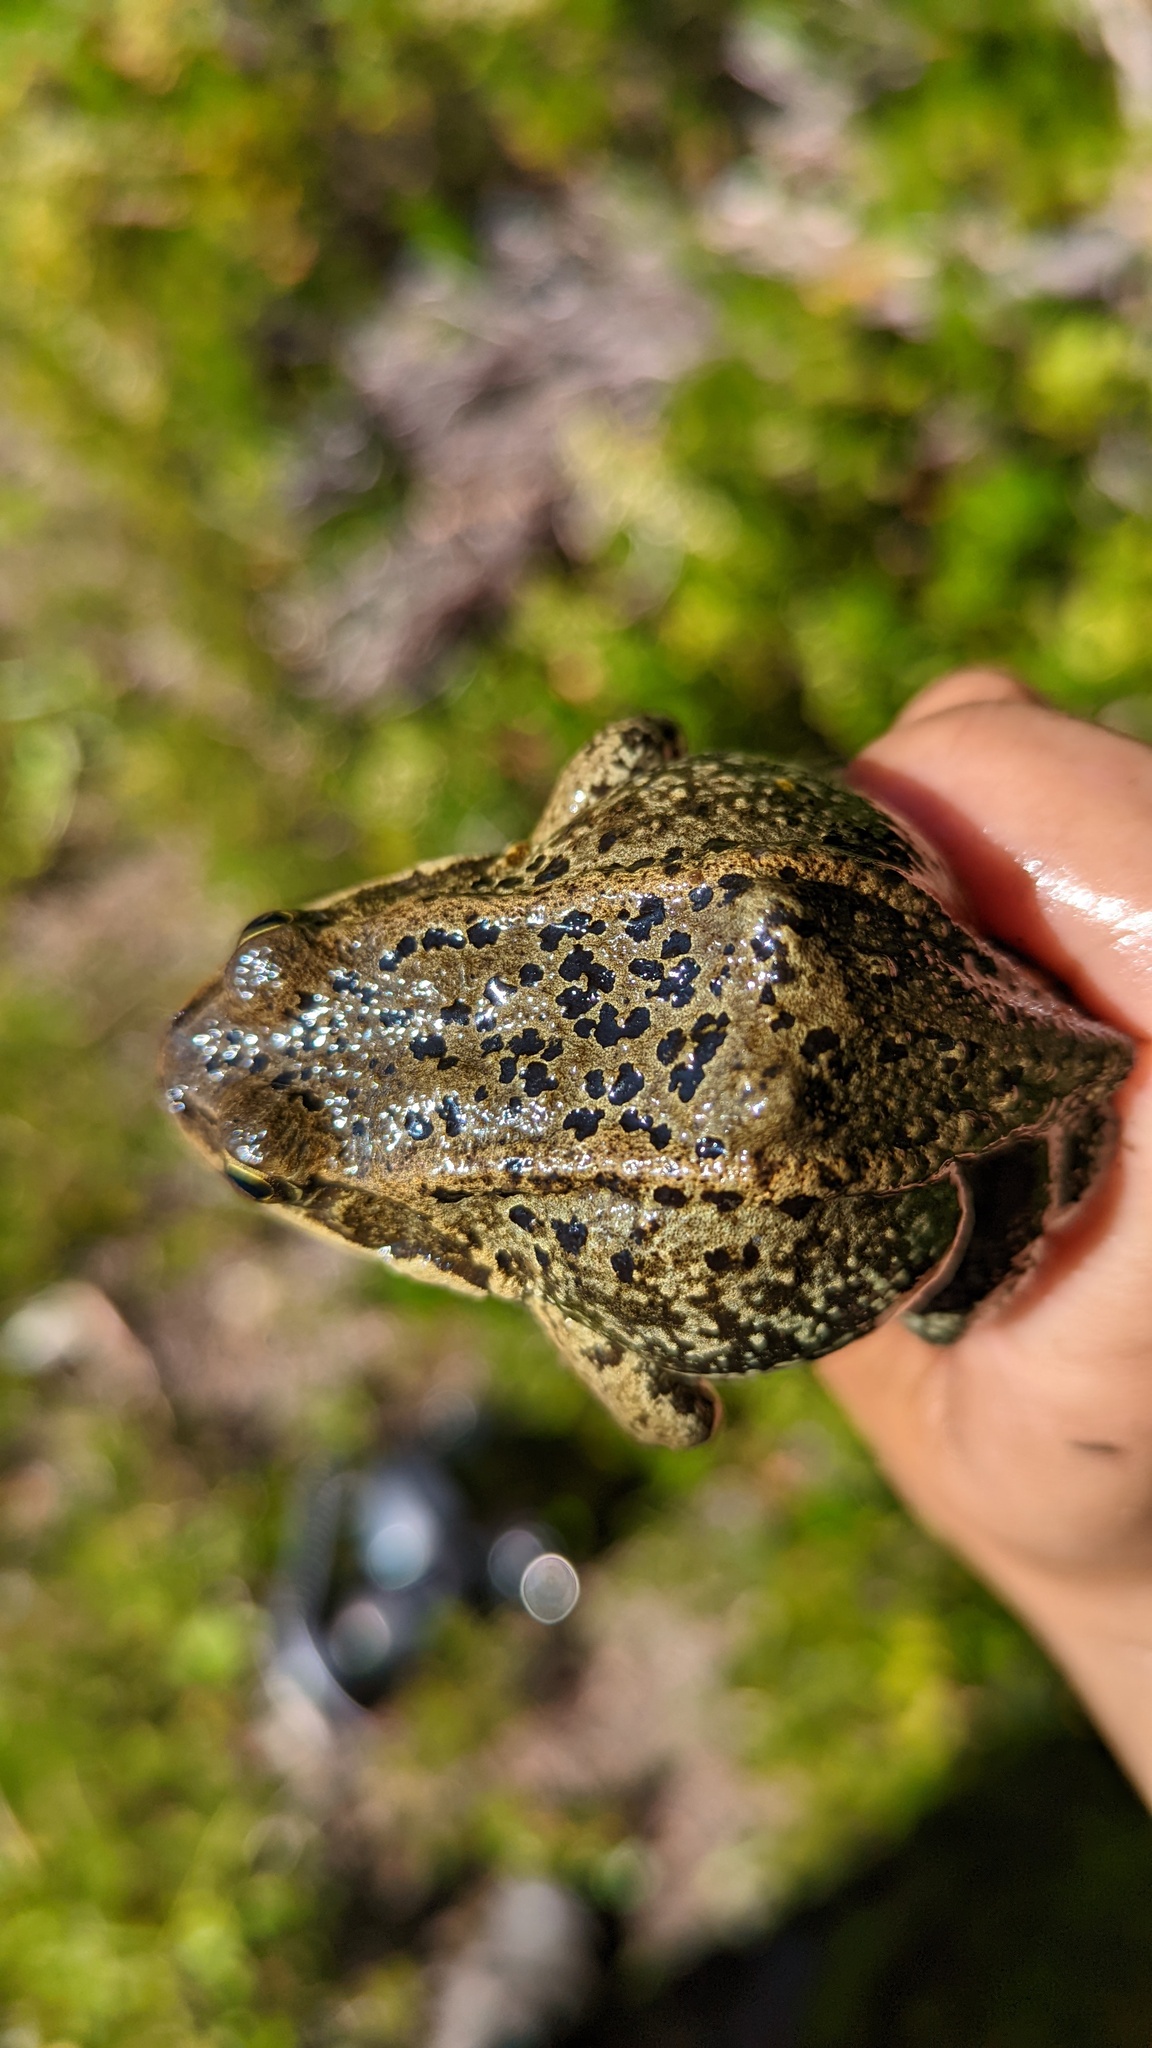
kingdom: Animalia
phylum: Chordata
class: Amphibia
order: Anura
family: Ranidae
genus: Rana
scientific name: Rana cascadae
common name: Cascades frog
